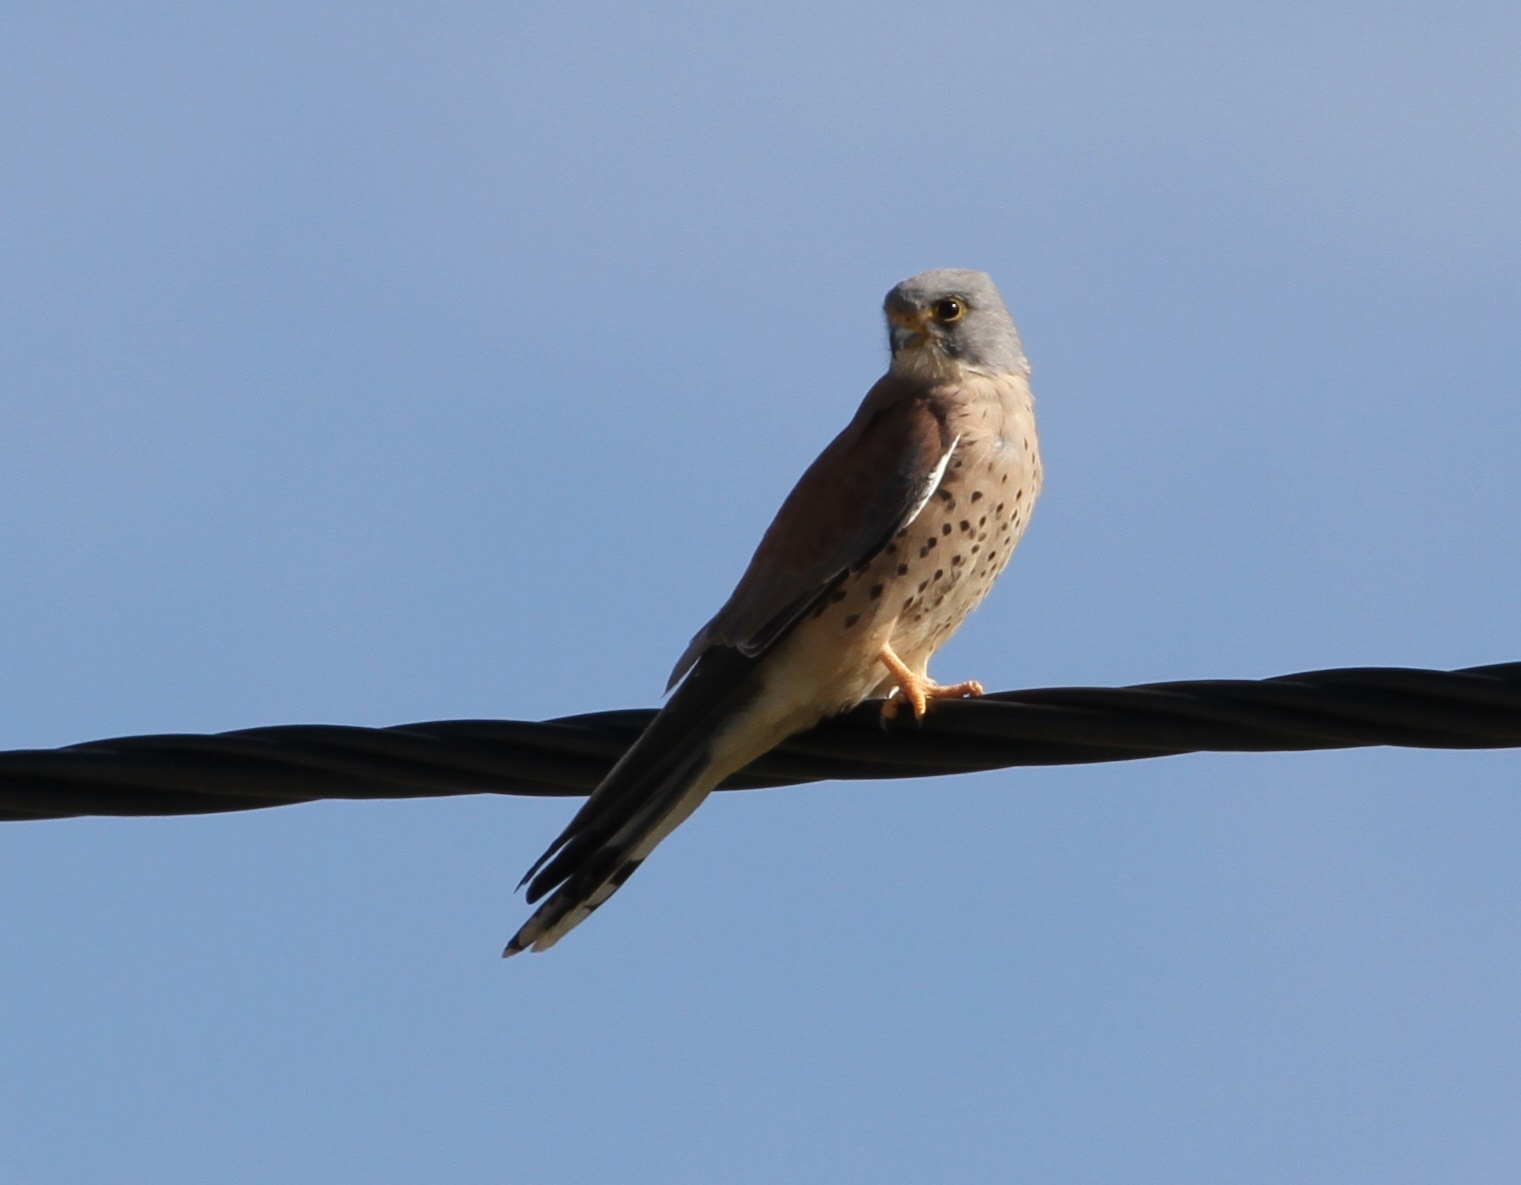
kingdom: Animalia
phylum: Chordata
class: Aves
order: Falconiformes
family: Falconidae
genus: Falco
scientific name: Falco naumanni
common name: Lesser kestrel
